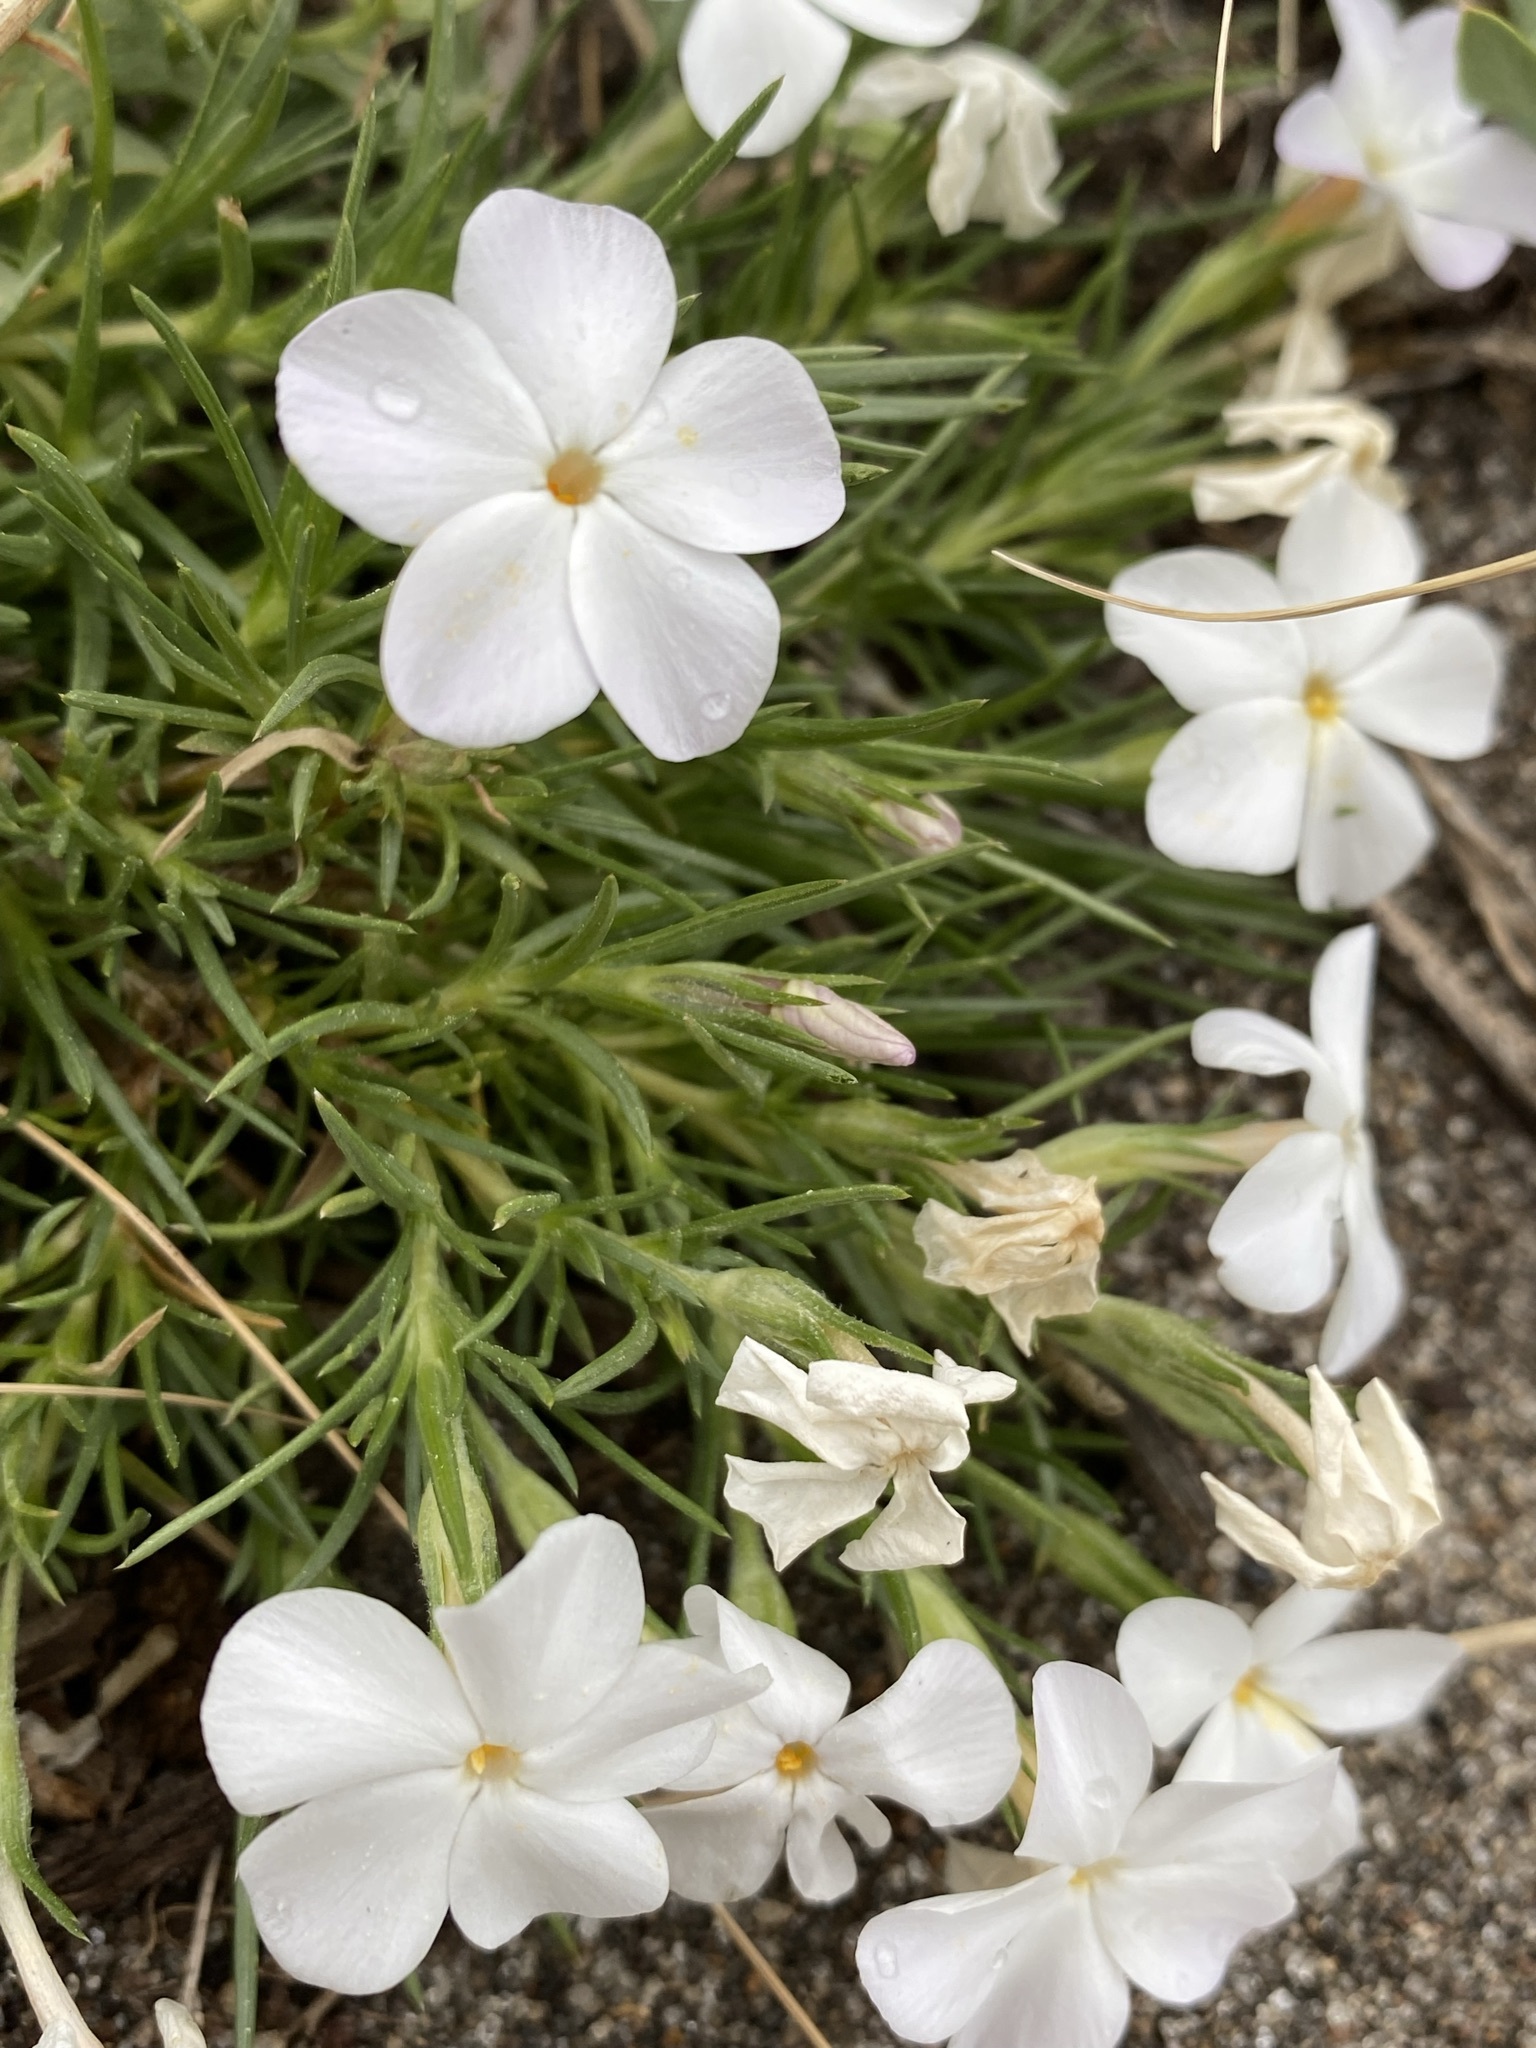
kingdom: Plantae
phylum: Tracheophyta
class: Magnoliopsida
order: Ericales
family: Polemoniaceae
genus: Phlox
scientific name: Phlox multiflora
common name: Rocky mountain phlox
